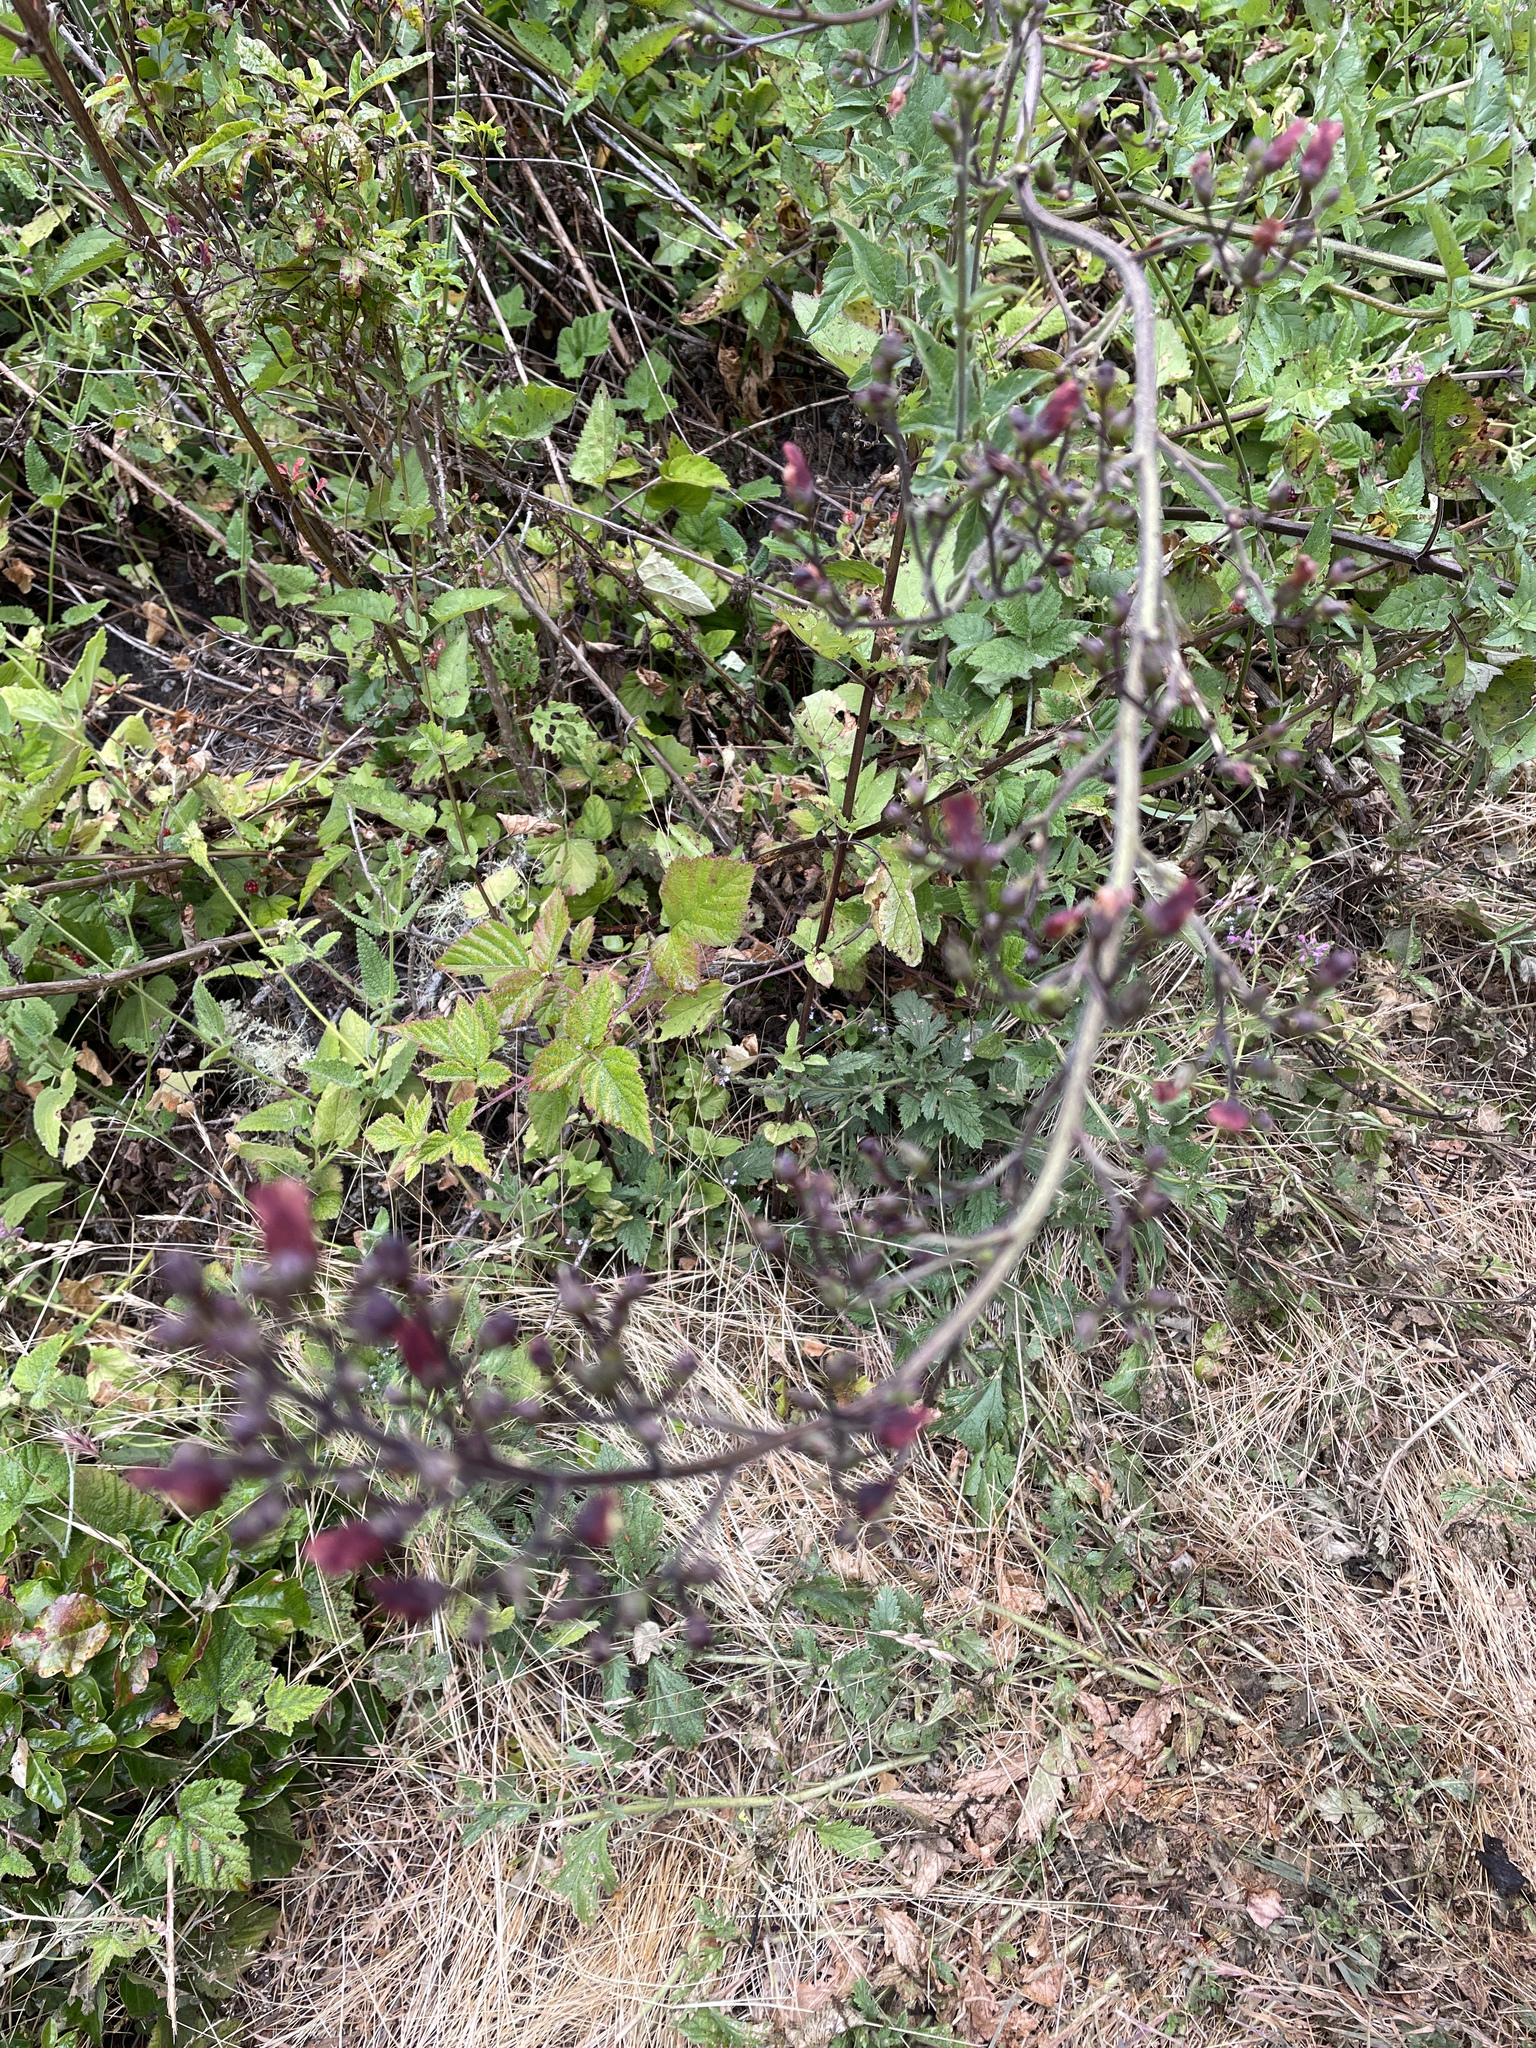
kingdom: Plantae
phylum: Tracheophyta
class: Magnoliopsida
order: Lamiales
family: Scrophulariaceae
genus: Scrophularia
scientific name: Scrophularia californica
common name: California figwort
